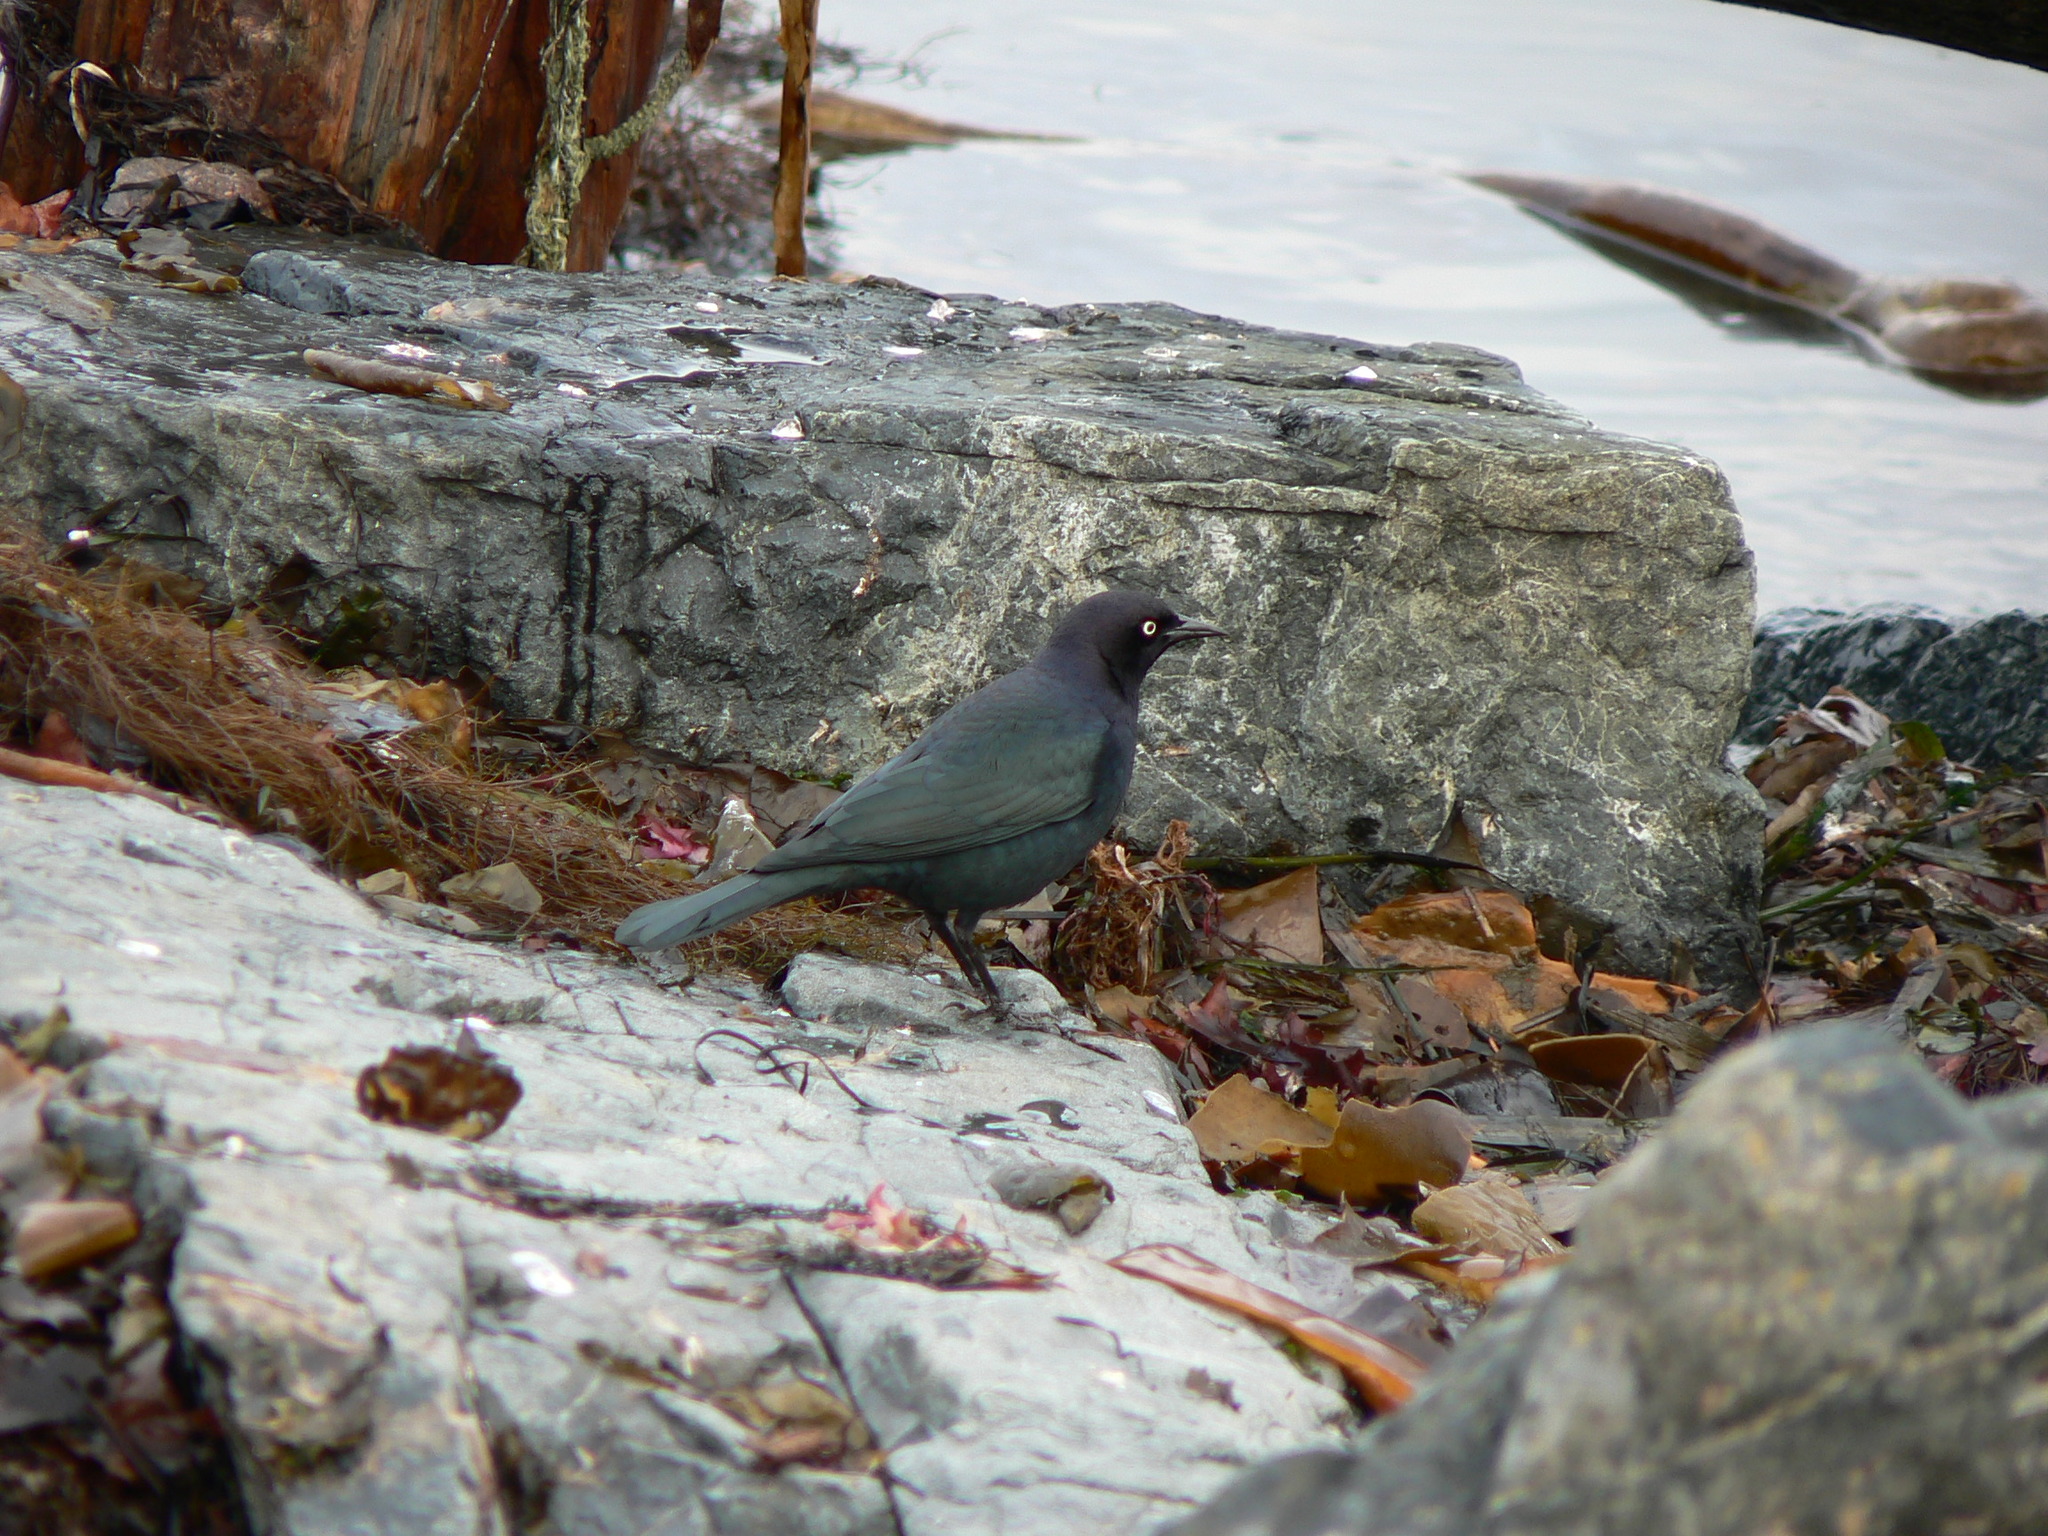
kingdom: Animalia
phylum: Chordata
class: Aves
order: Passeriformes
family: Icteridae
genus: Euphagus
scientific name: Euphagus cyanocephalus
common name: Brewer's blackbird
